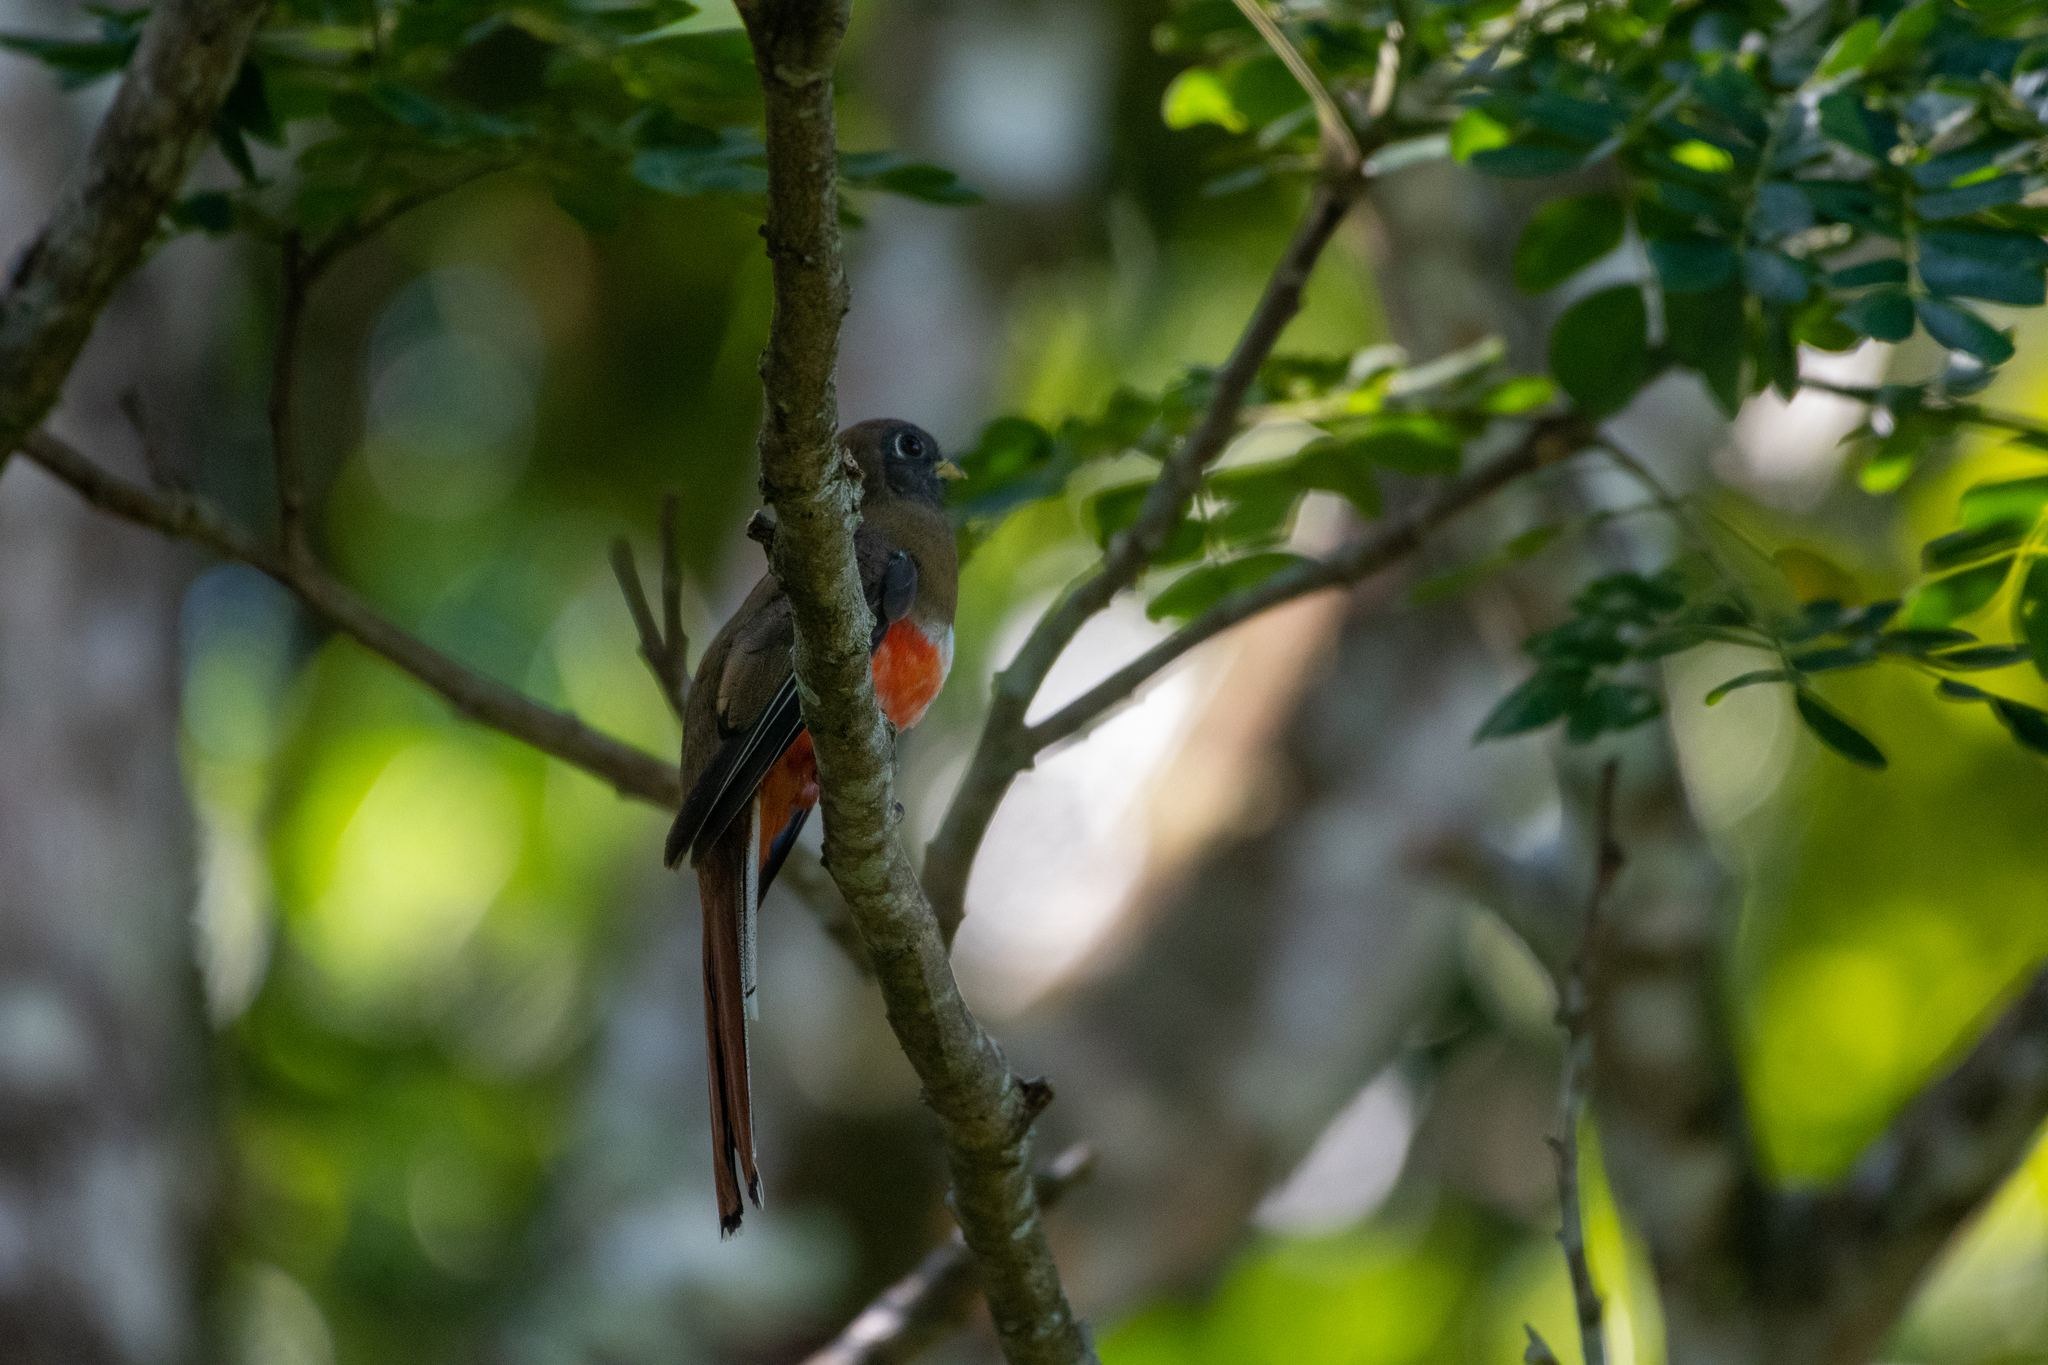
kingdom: Animalia
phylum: Chordata
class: Aves
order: Trogoniformes
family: Trogonidae
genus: Trogon
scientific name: Trogon collaris
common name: Collared trogon
